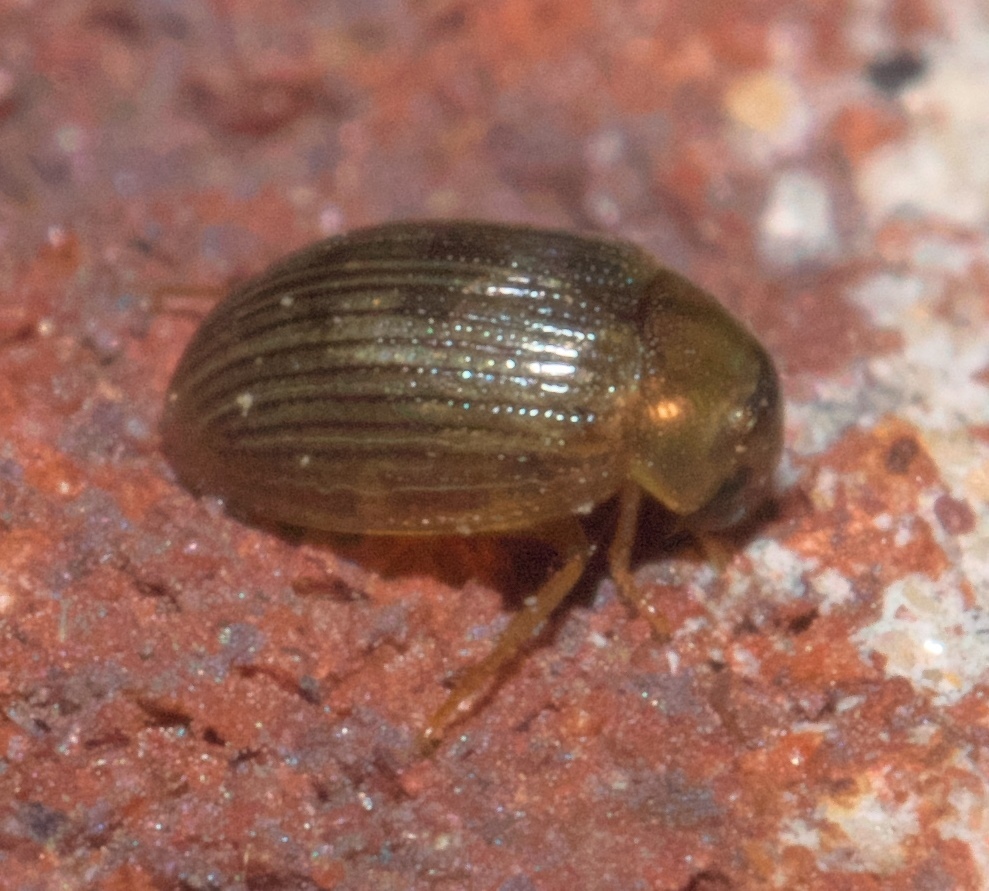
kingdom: Animalia
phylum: Arthropoda
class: Insecta
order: Coleoptera
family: Hydrophilidae
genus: Berosus
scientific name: Berosus exiguus
